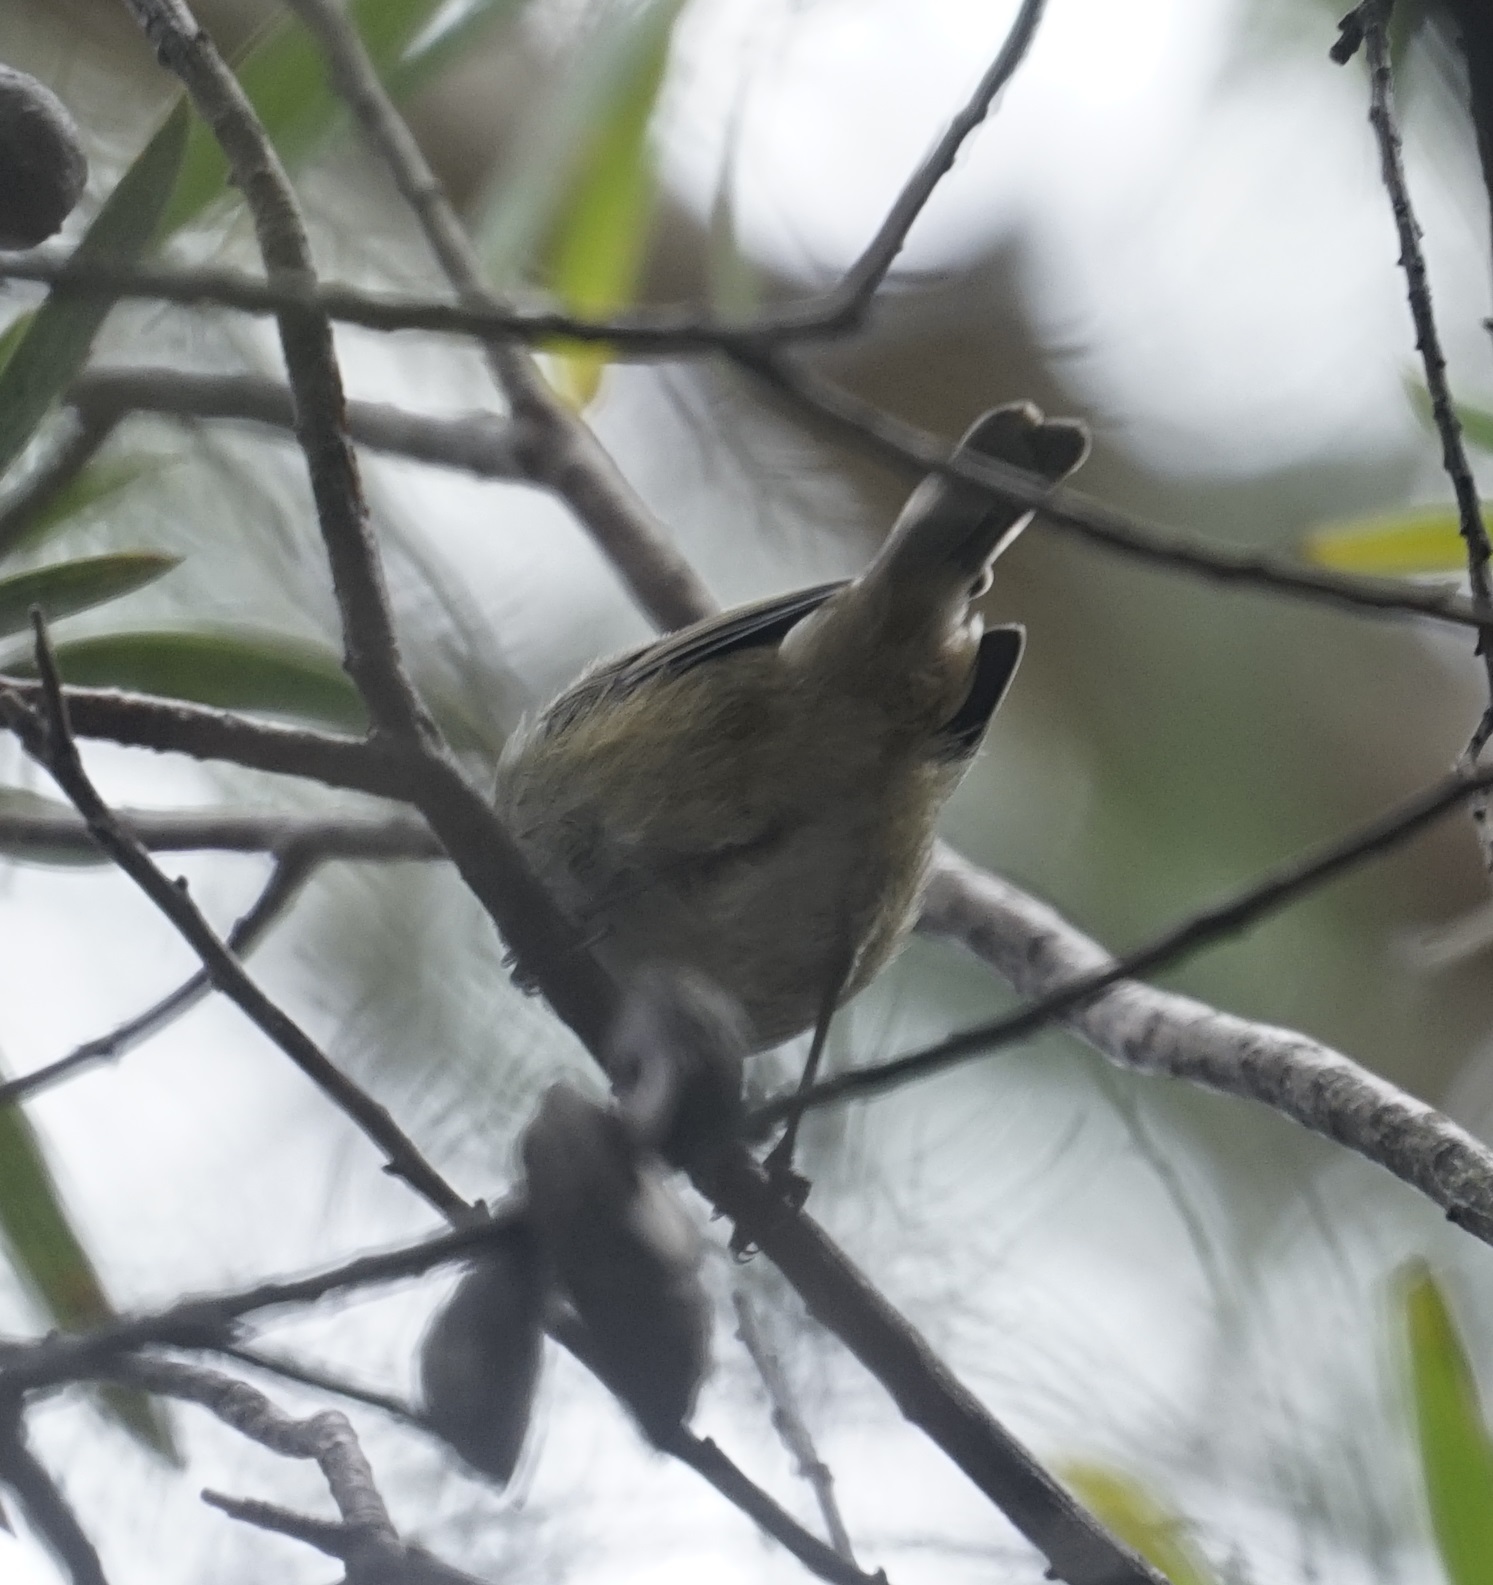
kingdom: Animalia
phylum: Chordata
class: Aves
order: Passeriformes
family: Acanthizidae
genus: Acanthiza
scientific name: Acanthiza pusilla
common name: Brown thornbill
